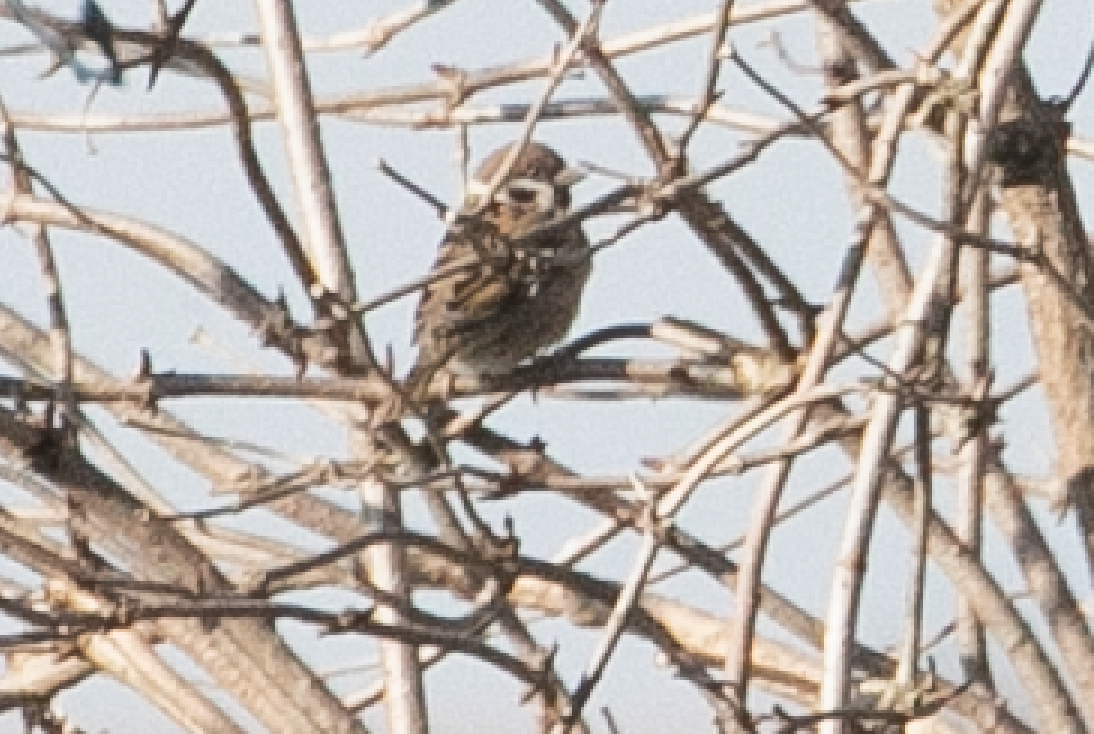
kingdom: Animalia
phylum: Chordata
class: Aves
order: Passeriformes
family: Passeridae
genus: Passer
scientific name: Passer montanus
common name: Eurasian tree sparrow
